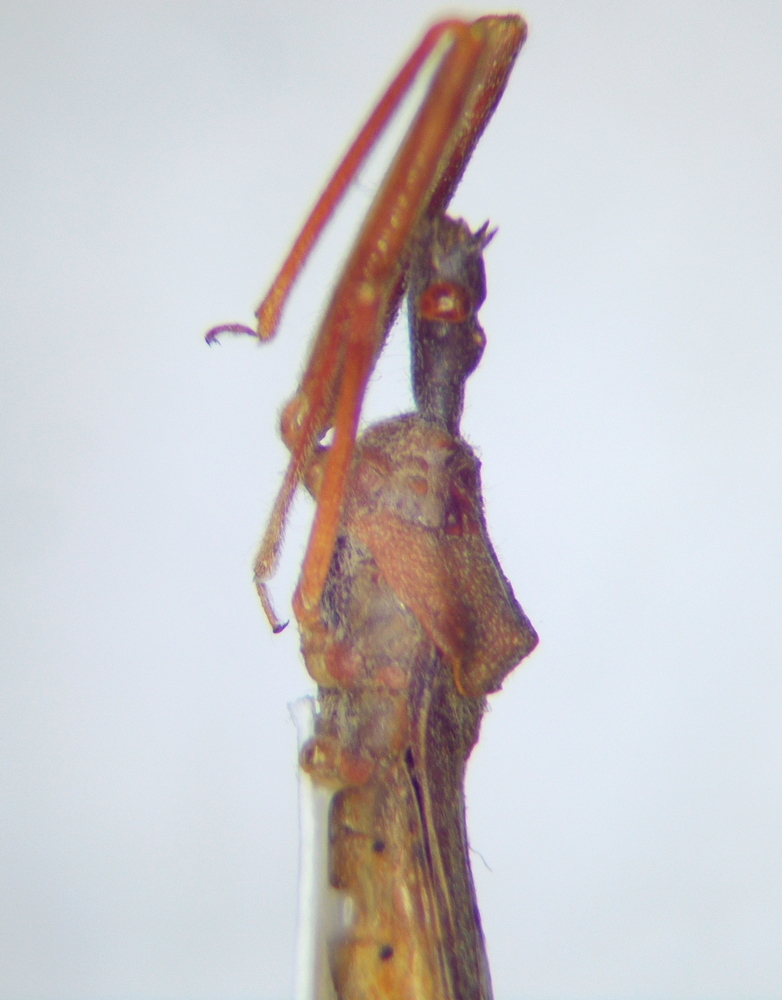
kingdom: Animalia
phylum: Arthropoda
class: Insecta
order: Hemiptera
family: Reduviidae
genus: Nagusta
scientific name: Nagusta goedelii
